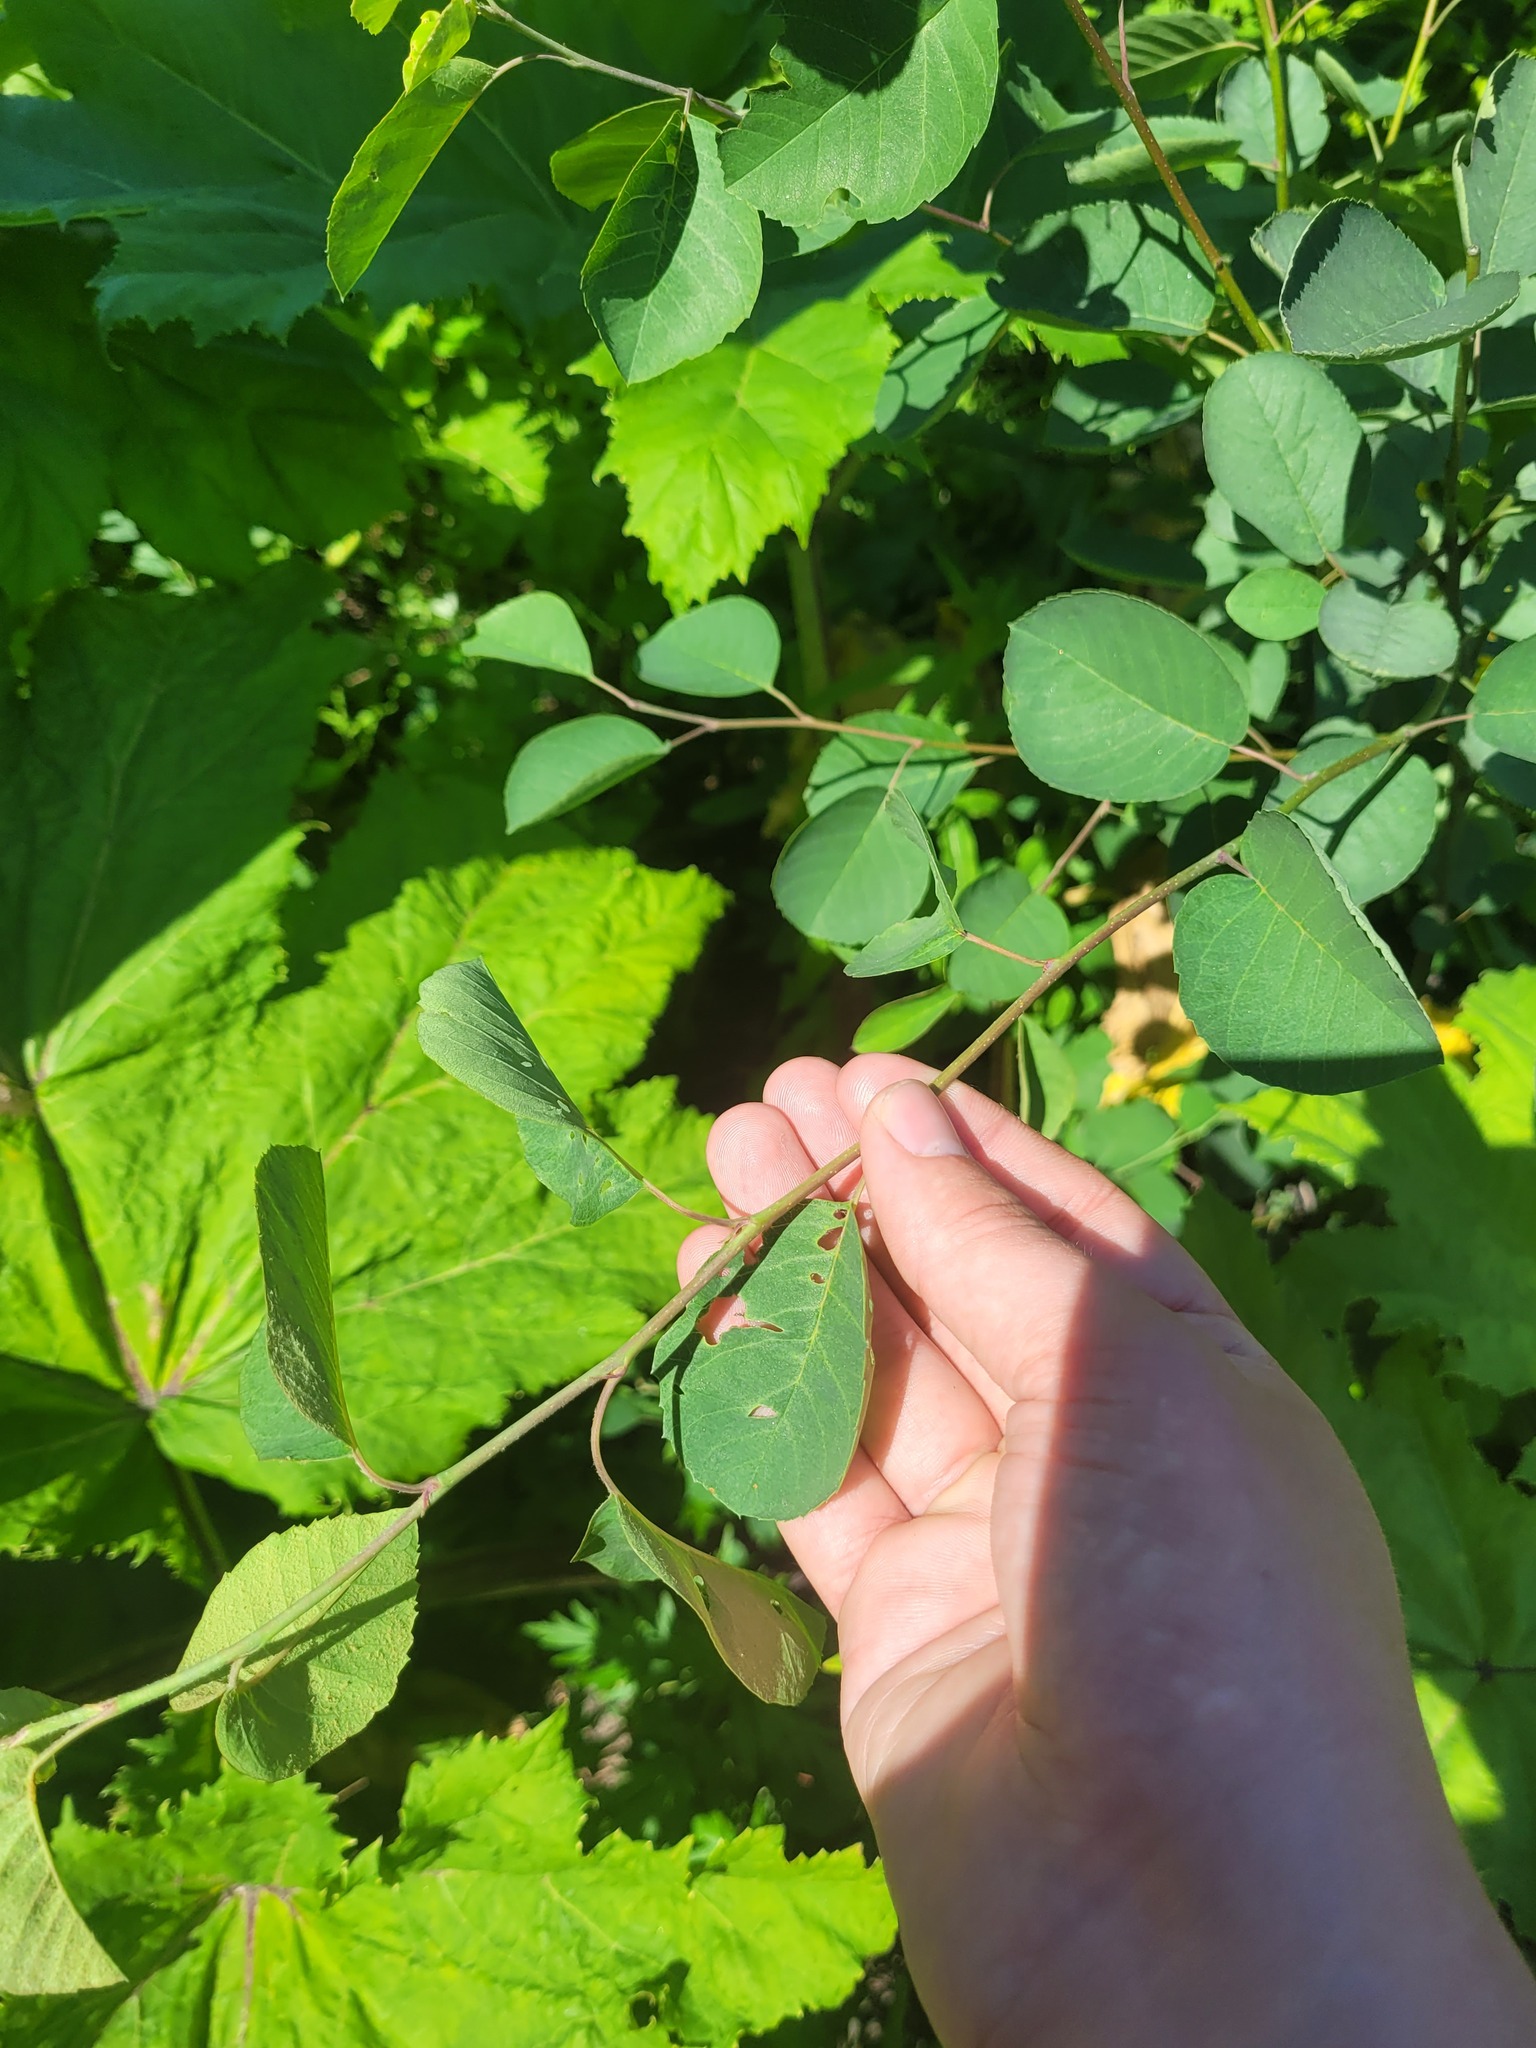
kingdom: Plantae
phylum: Tracheophyta
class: Magnoliopsida
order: Rosales
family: Rosaceae
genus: Amelanchier
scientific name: Amelanchier
